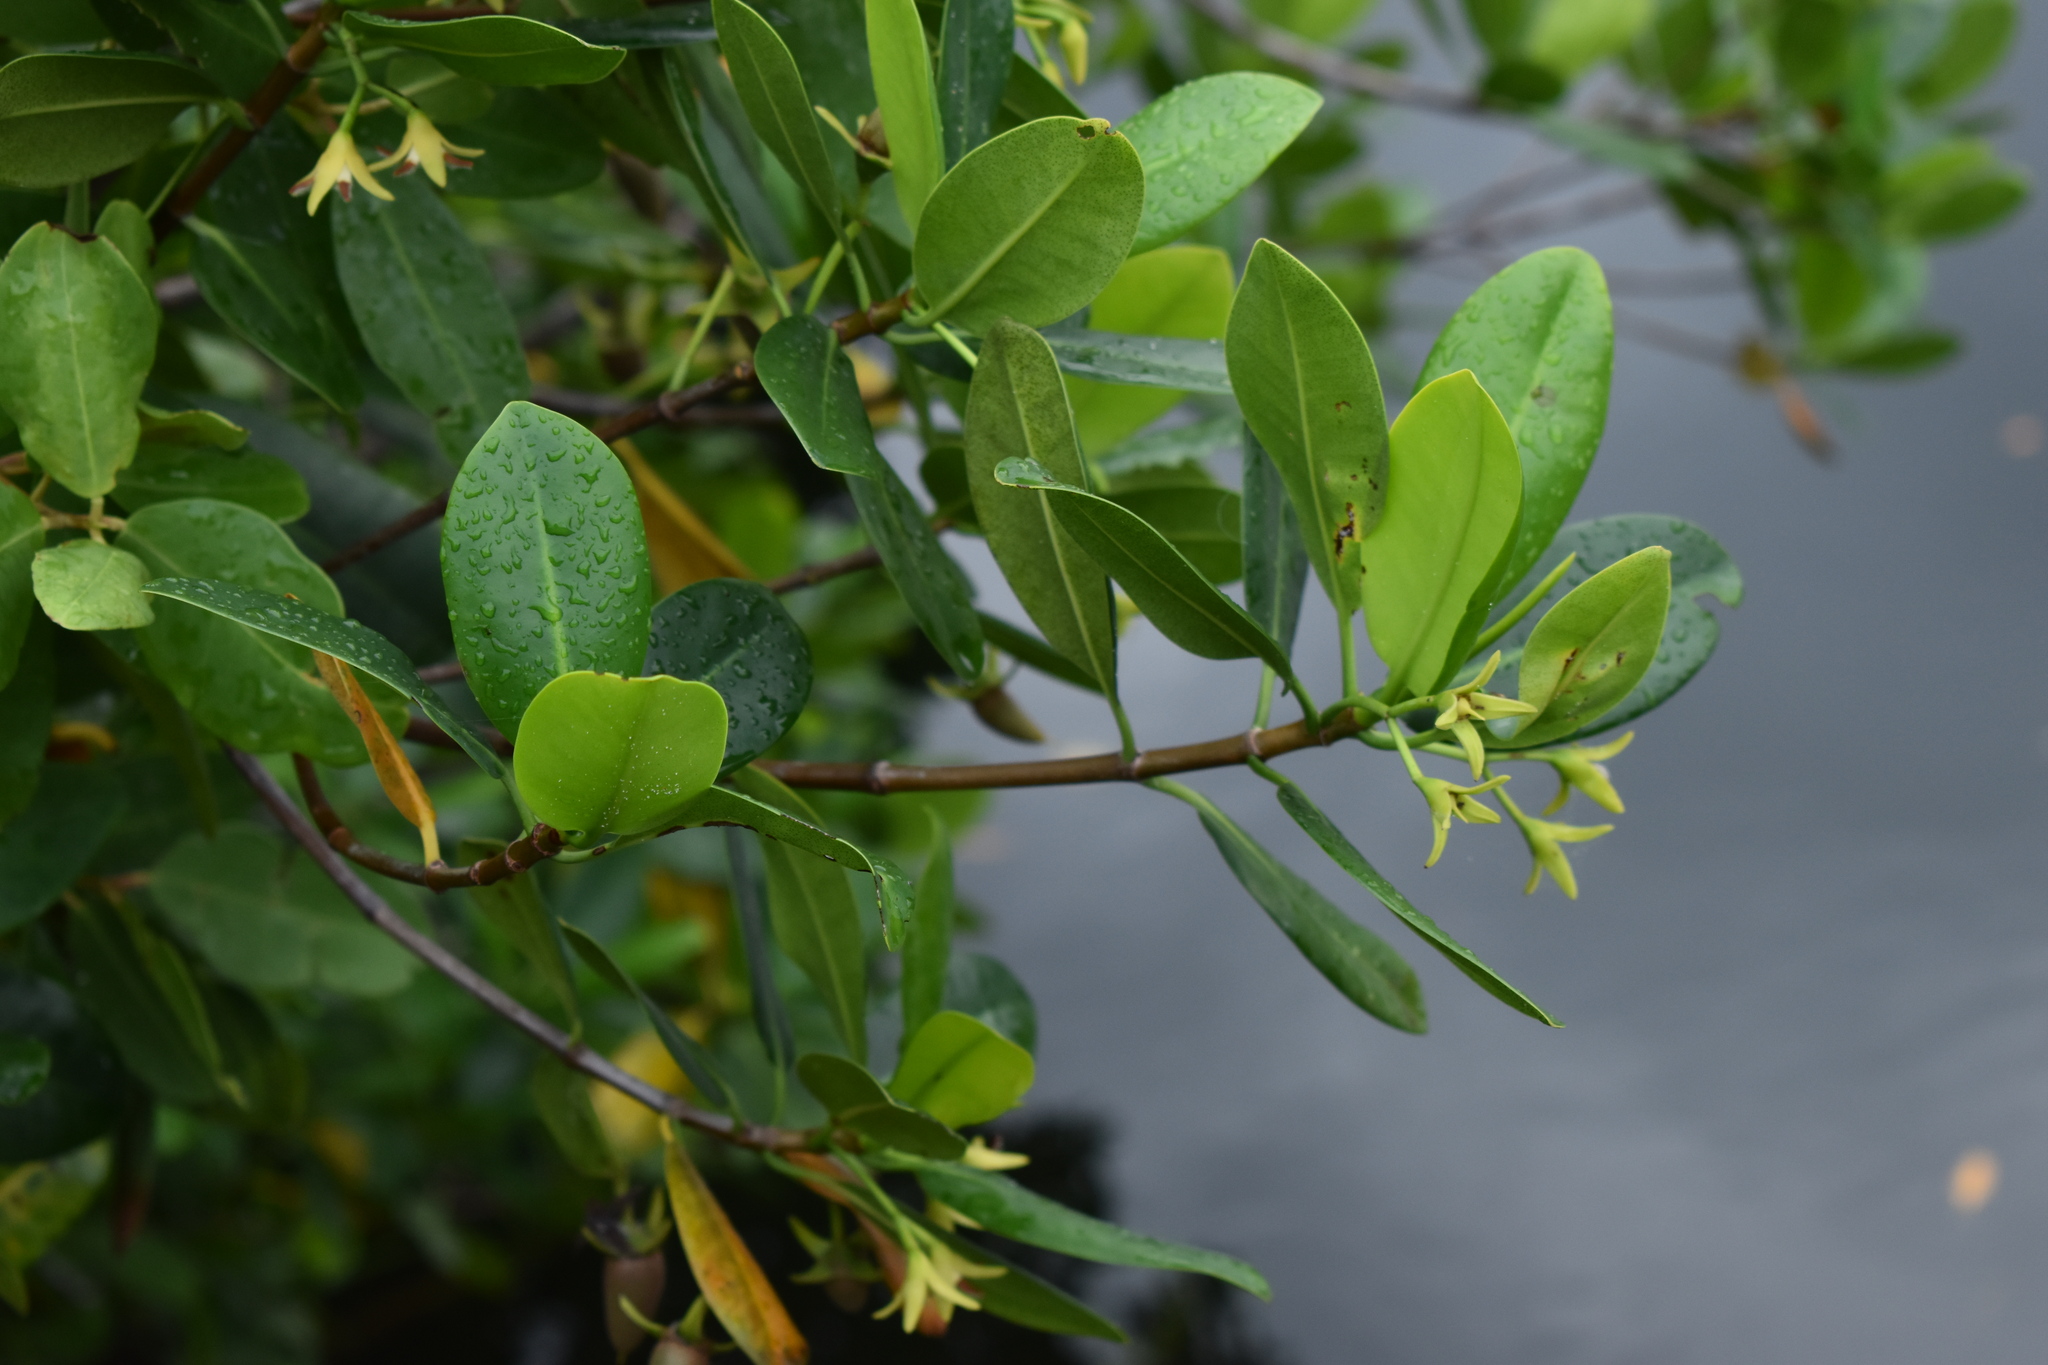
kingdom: Plantae
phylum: Tracheophyta
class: Magnoliopsida
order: Malpighiales
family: Rhizophoraceae
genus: Rhizophora
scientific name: Rhizophora mangle
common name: Red mangrove
